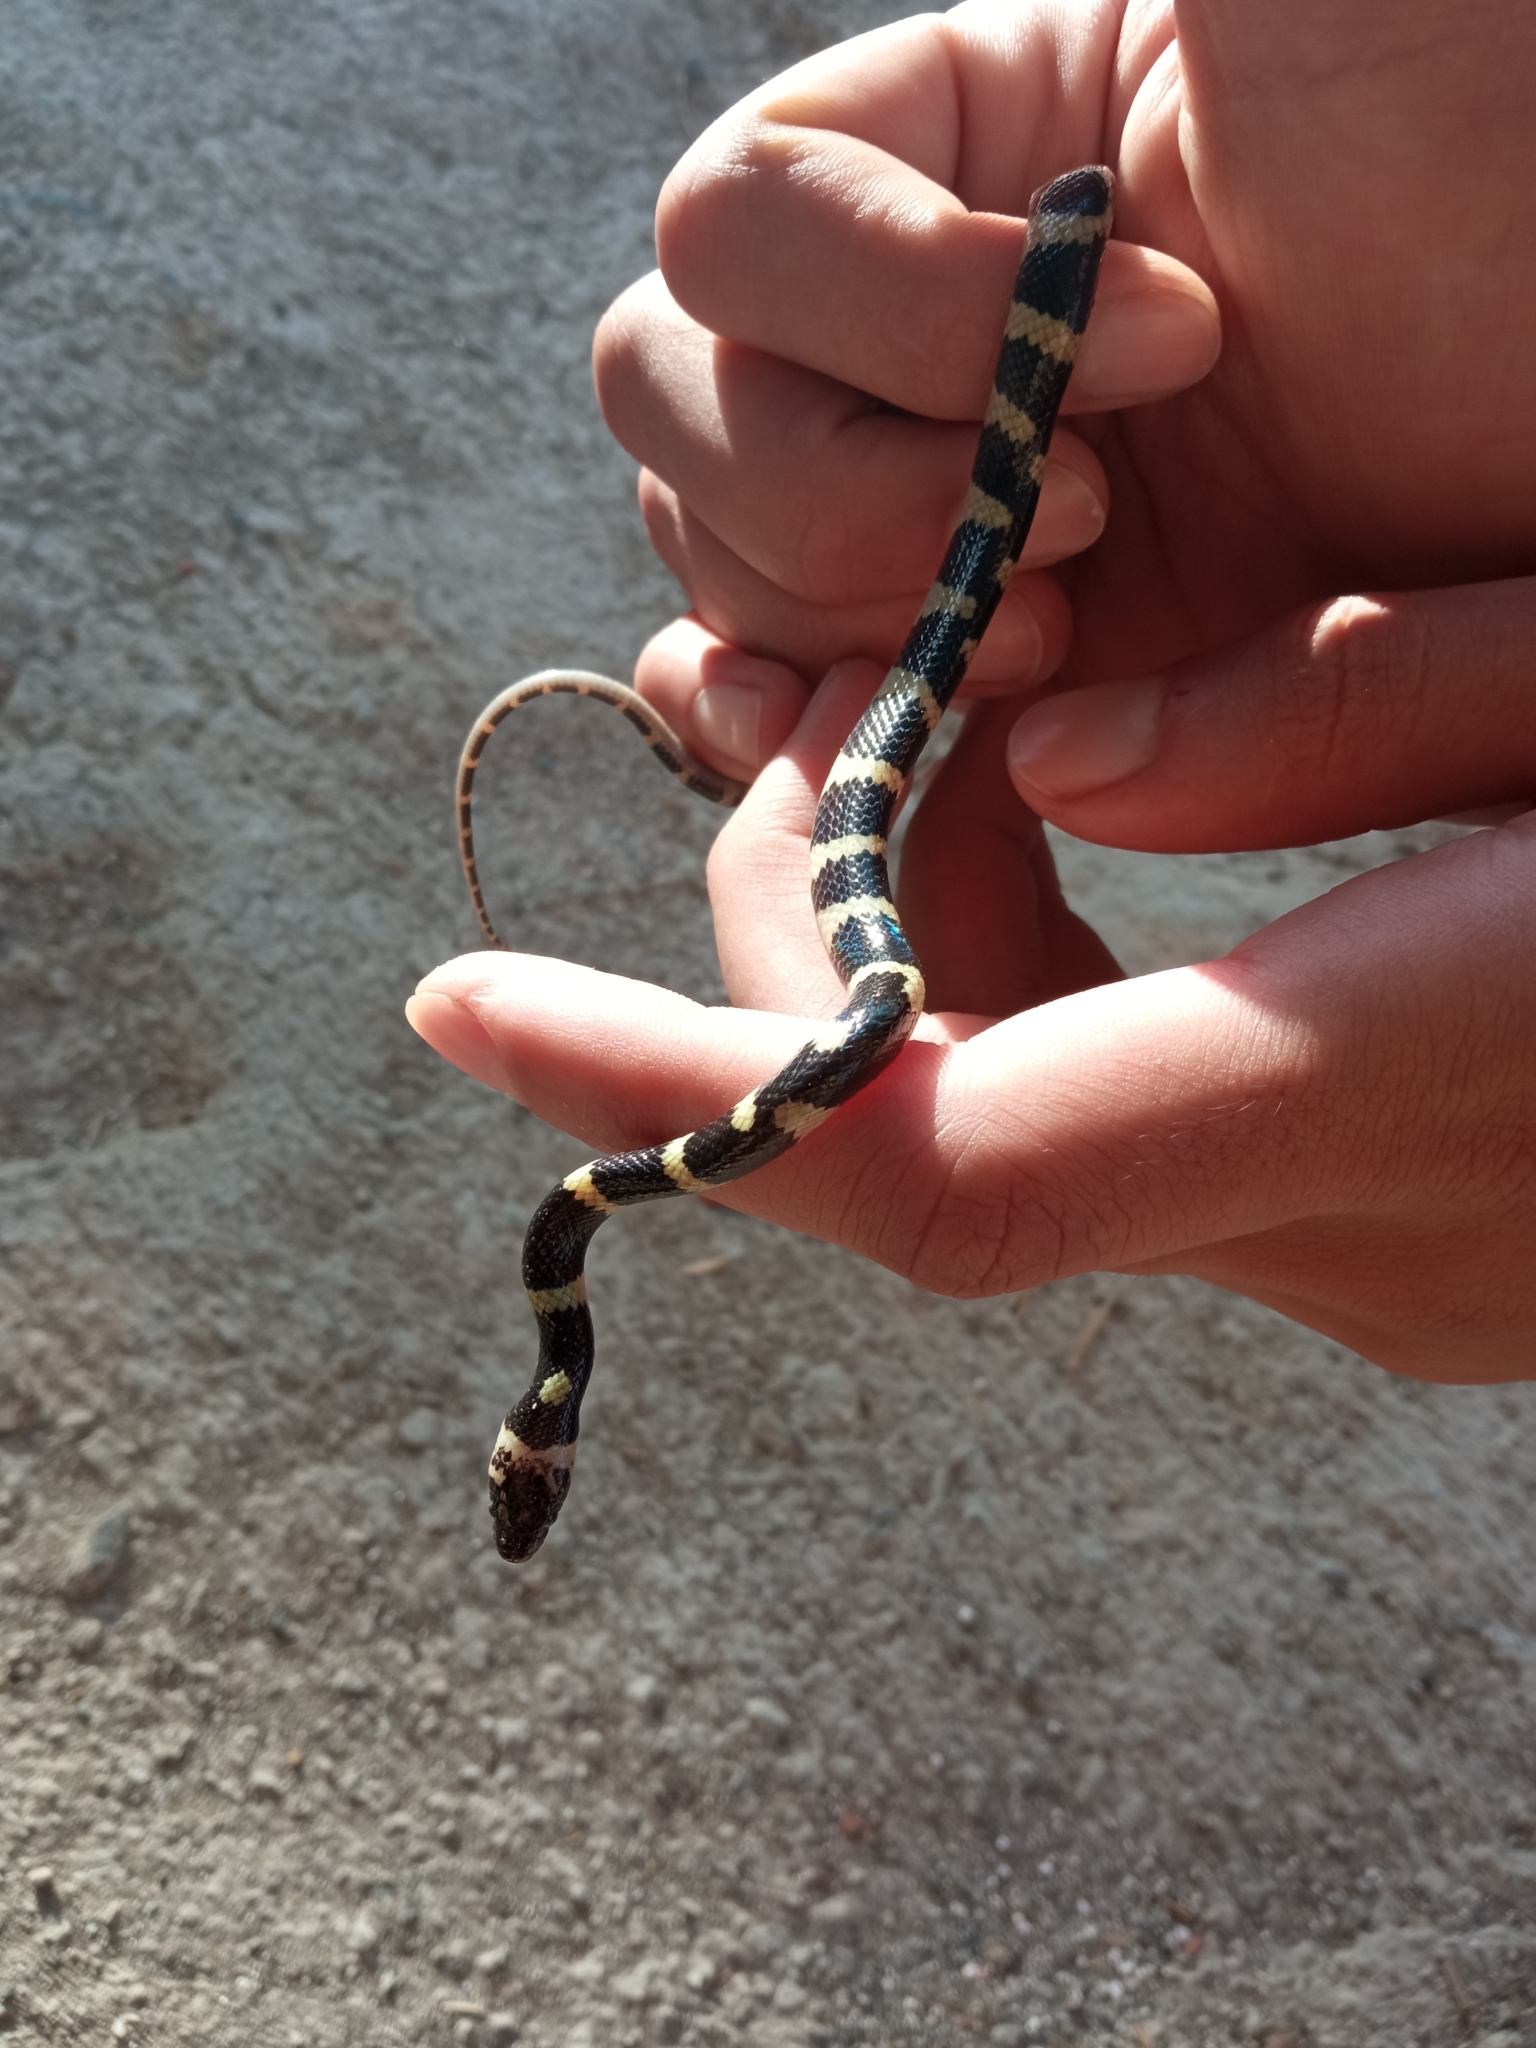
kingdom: Animalia
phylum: Chordata
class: Squamata
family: Colubridae
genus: Oxyrhopus
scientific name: Oxyrhopus petolarius
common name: Forest flame snake
